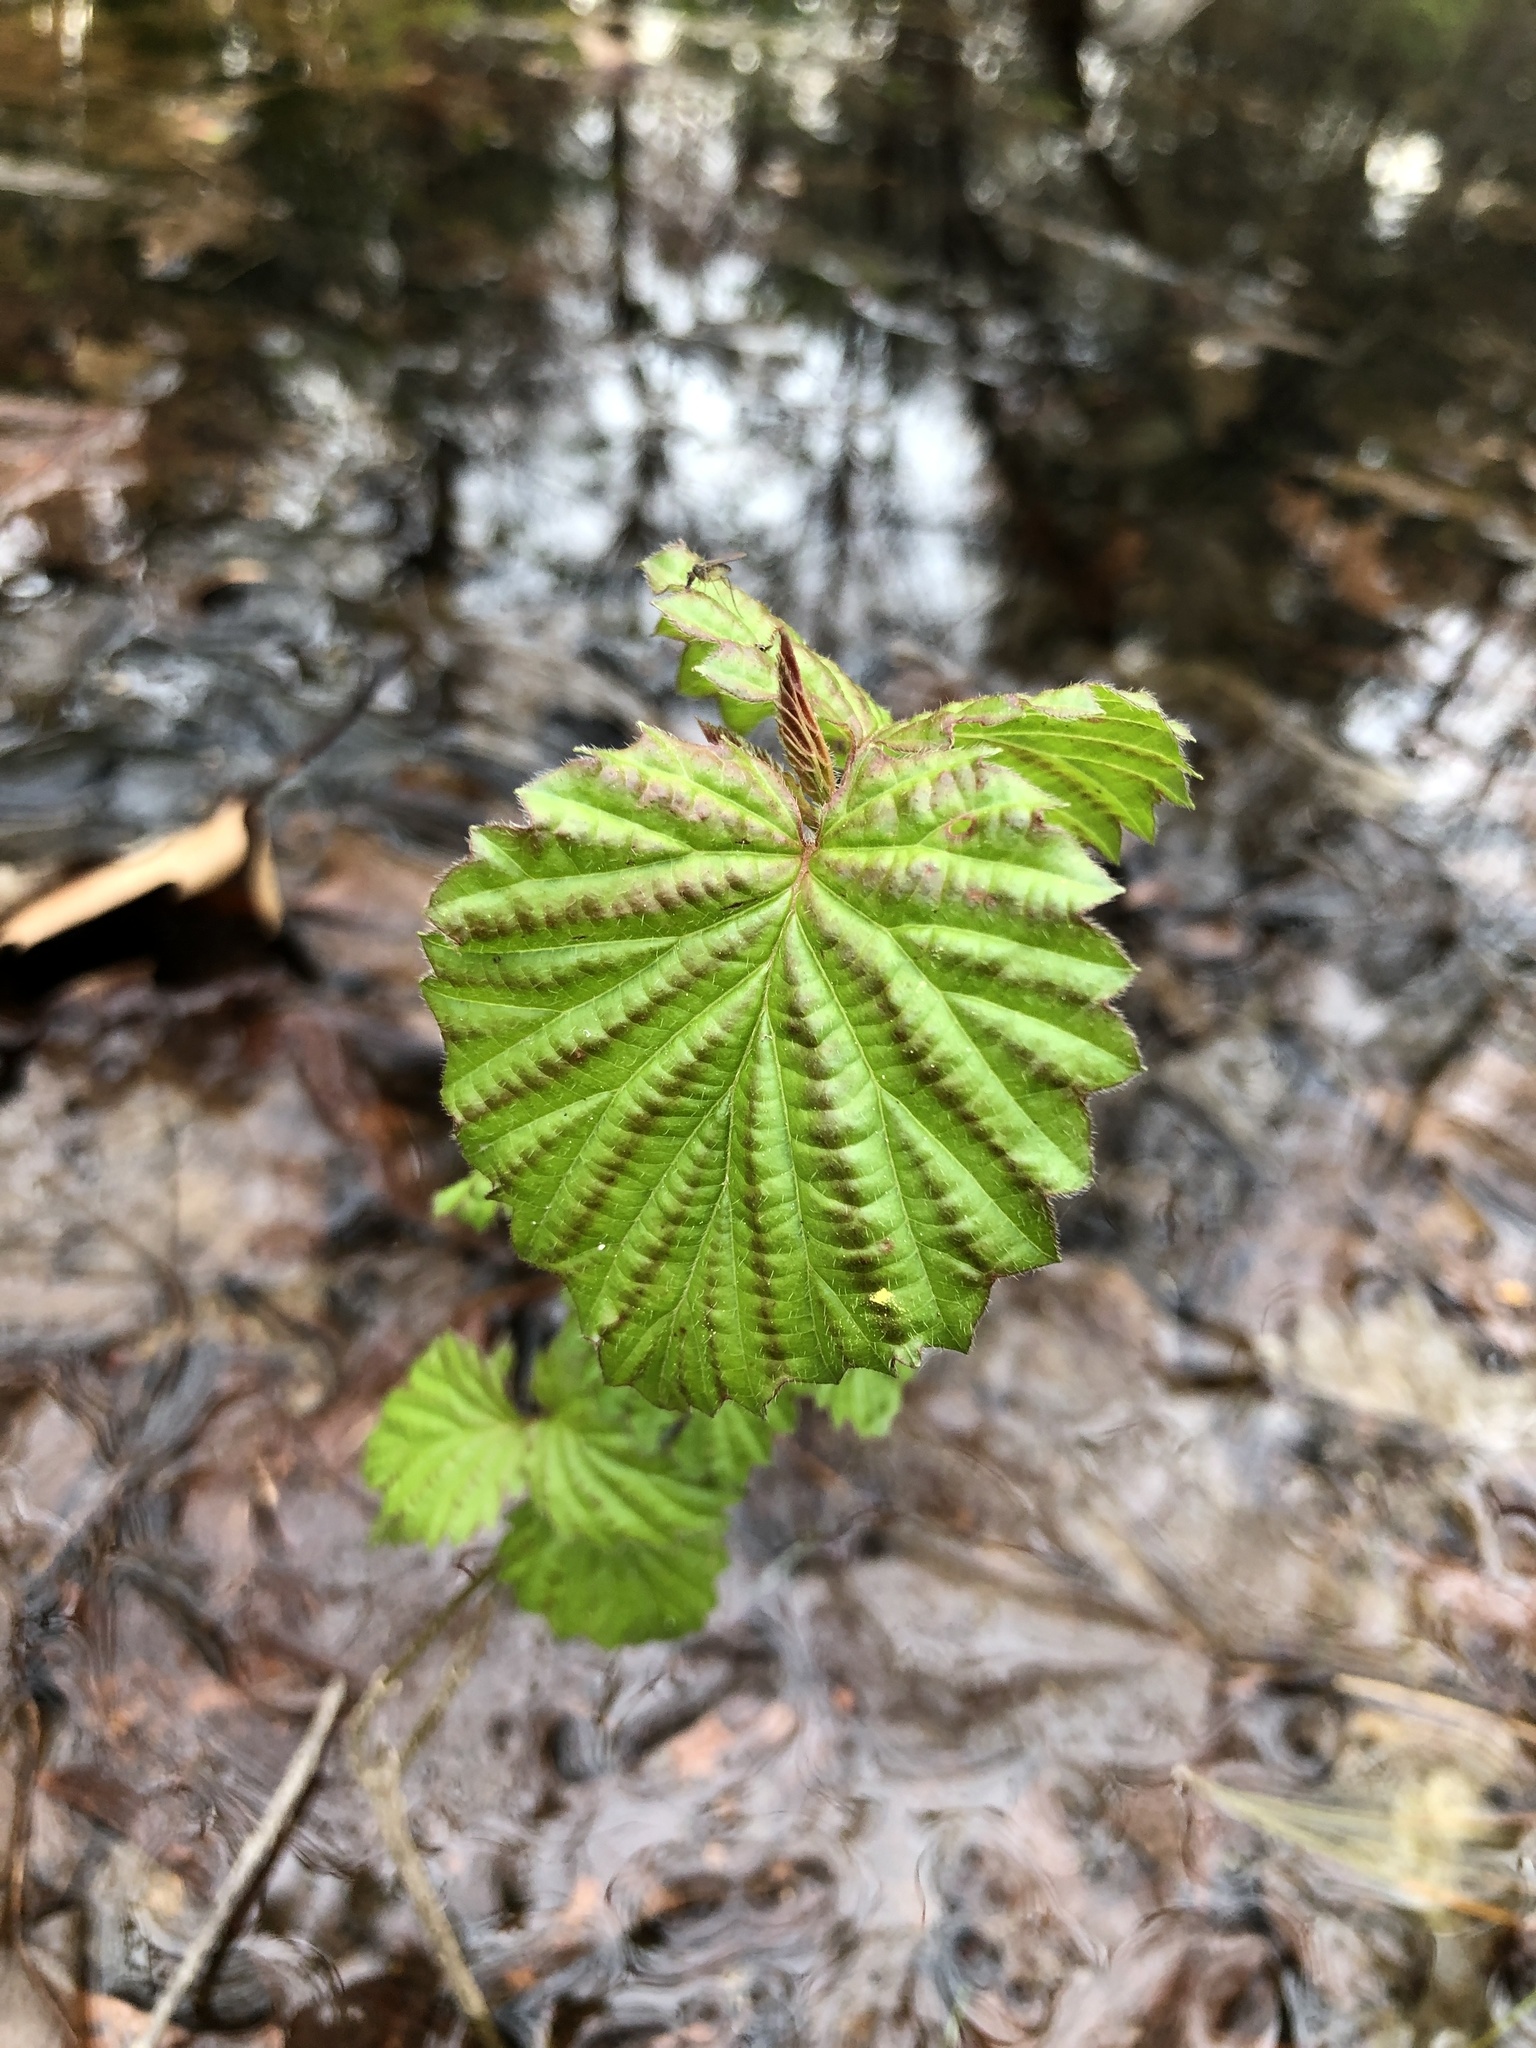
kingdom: Plantae
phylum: Tracheophyta
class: Magnoliopsida
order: Dipsacales
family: Viburnaceae
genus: Viburnum
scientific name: Viburnum dentatum
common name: Arrow-wood
